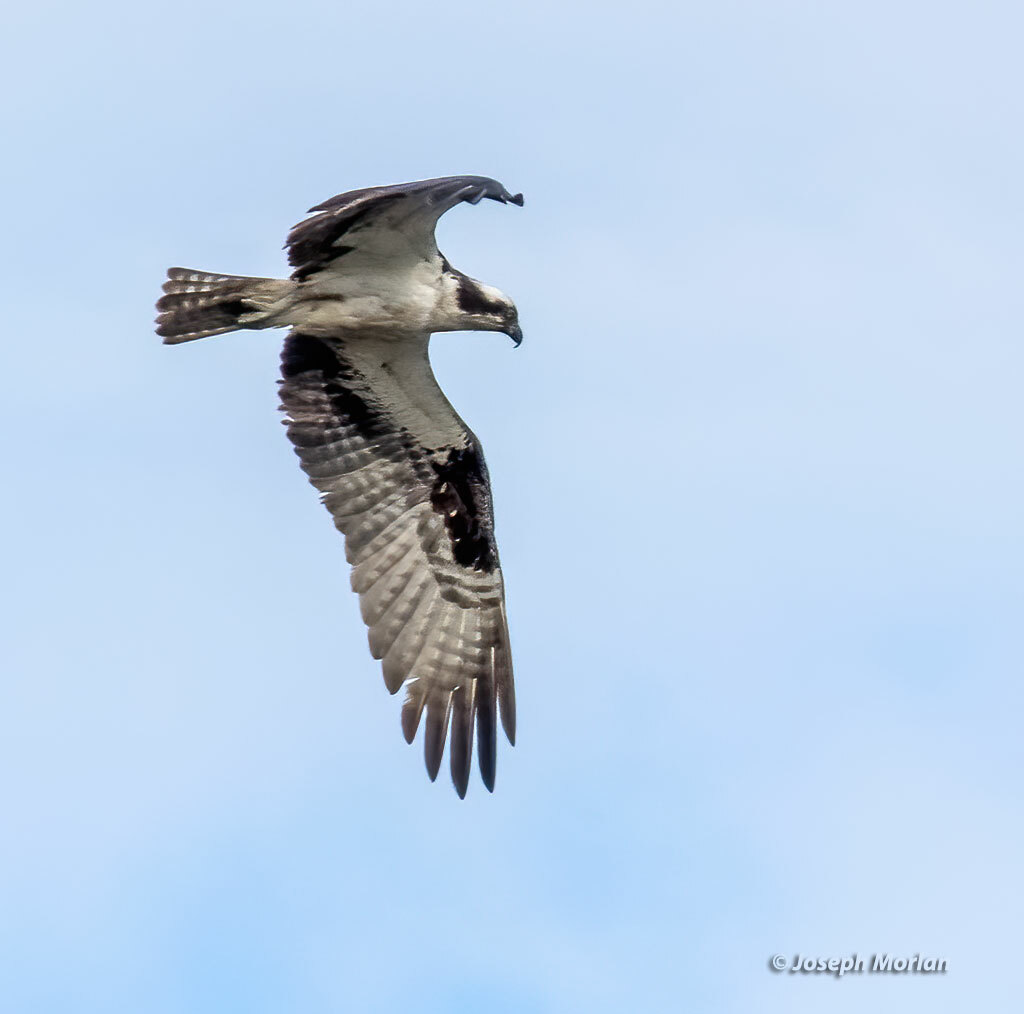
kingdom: Animalia
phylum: Chordata
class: Aves
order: Accipitriformes
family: Pandionidae
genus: Pandion
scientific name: Pandion haliaetus
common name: Osprey
